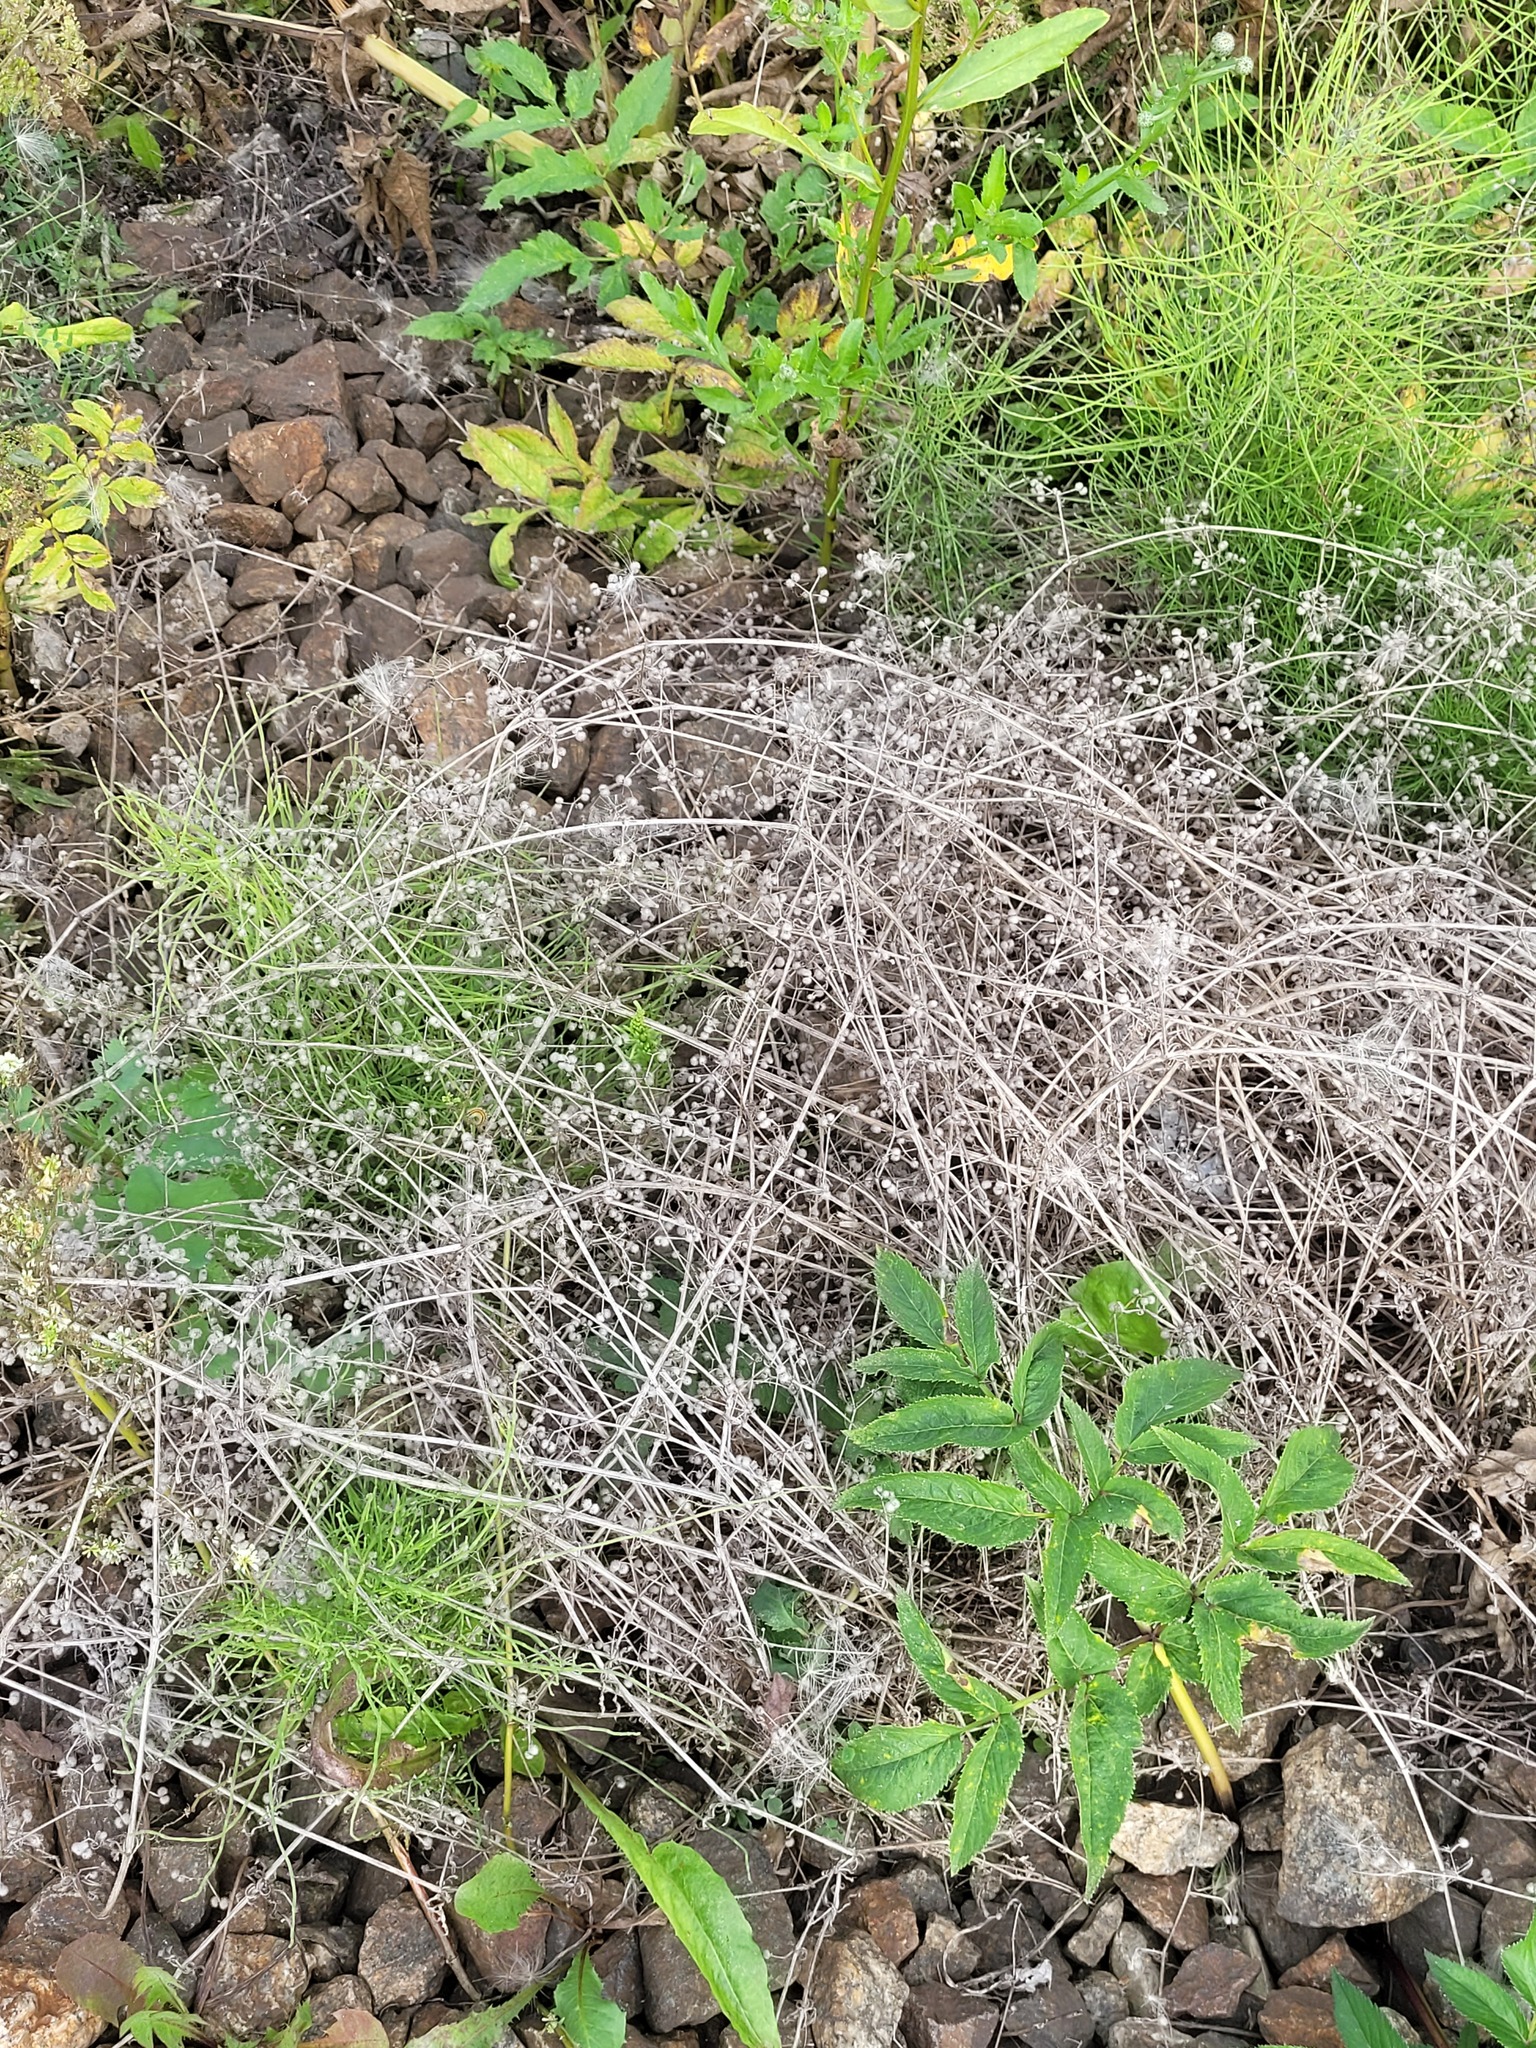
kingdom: Plantae
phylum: Tracheophyta
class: Magnoliopsida
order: Gentianales
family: Rubiaceae
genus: Galium
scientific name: Galium
